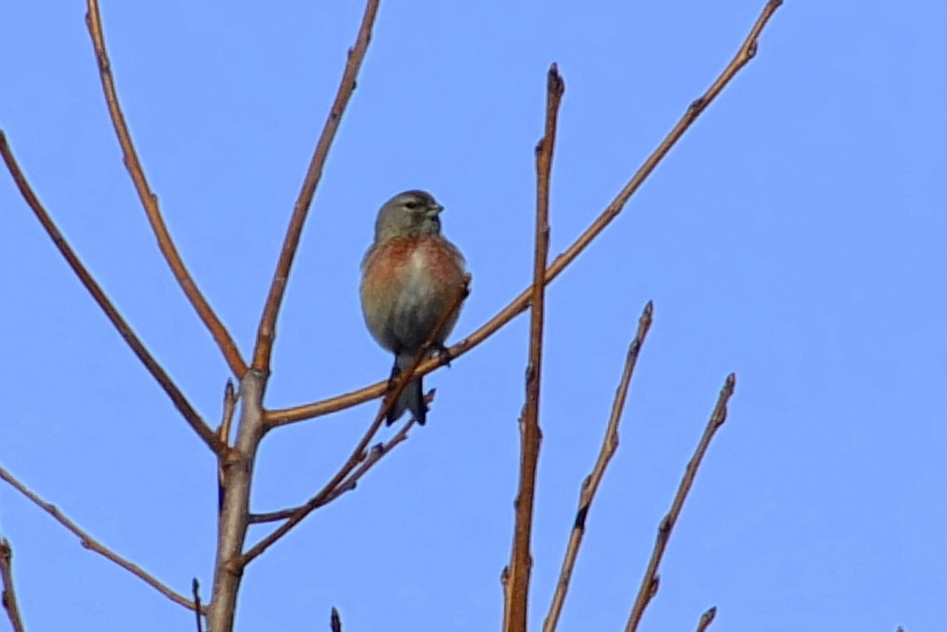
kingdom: Animalia
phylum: Chordata
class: Aves
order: Passeriformes
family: Fringillidae
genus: Linaria
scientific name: Linaria cannabina
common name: Common linnet
